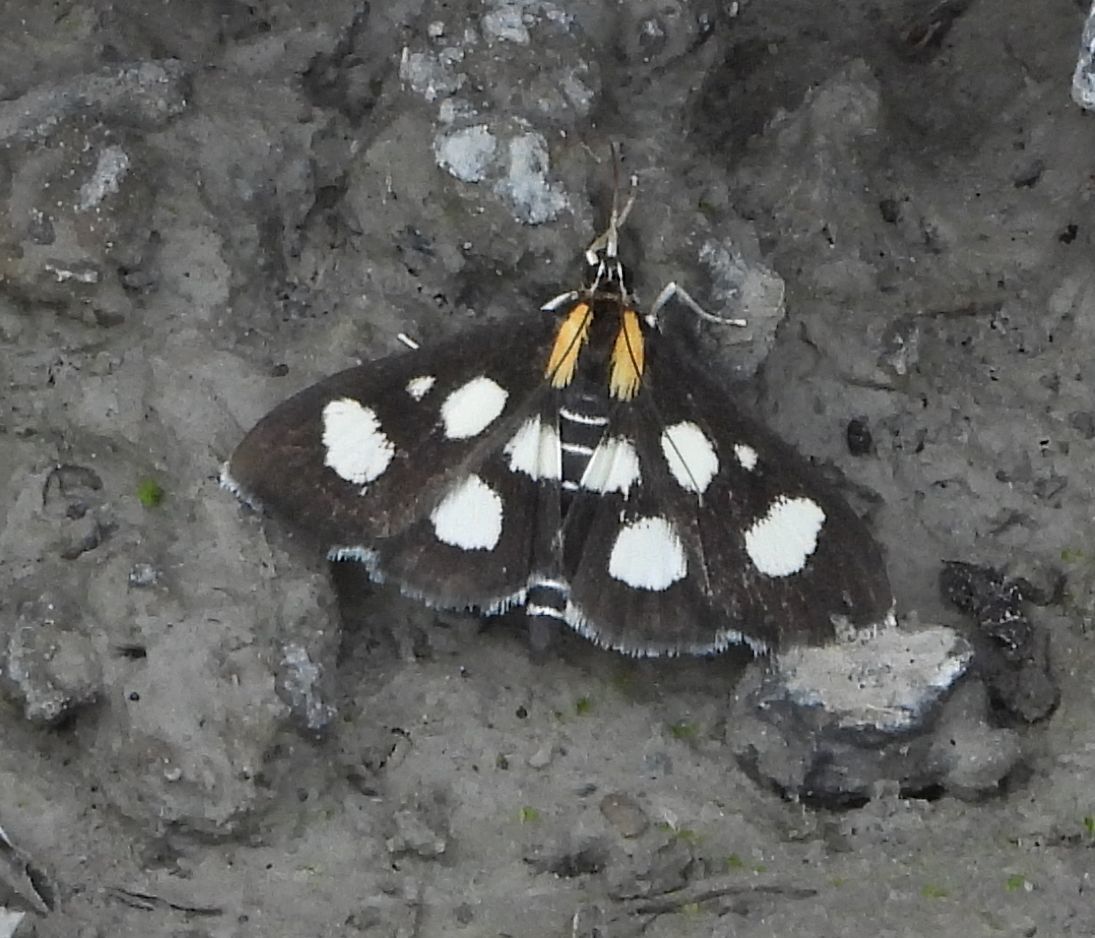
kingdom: Animalia
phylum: Arthropoda
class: Insecta
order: Lepidoptera
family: Crambidae
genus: Anania
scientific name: Anania funebris
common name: White-spotted sable moth
